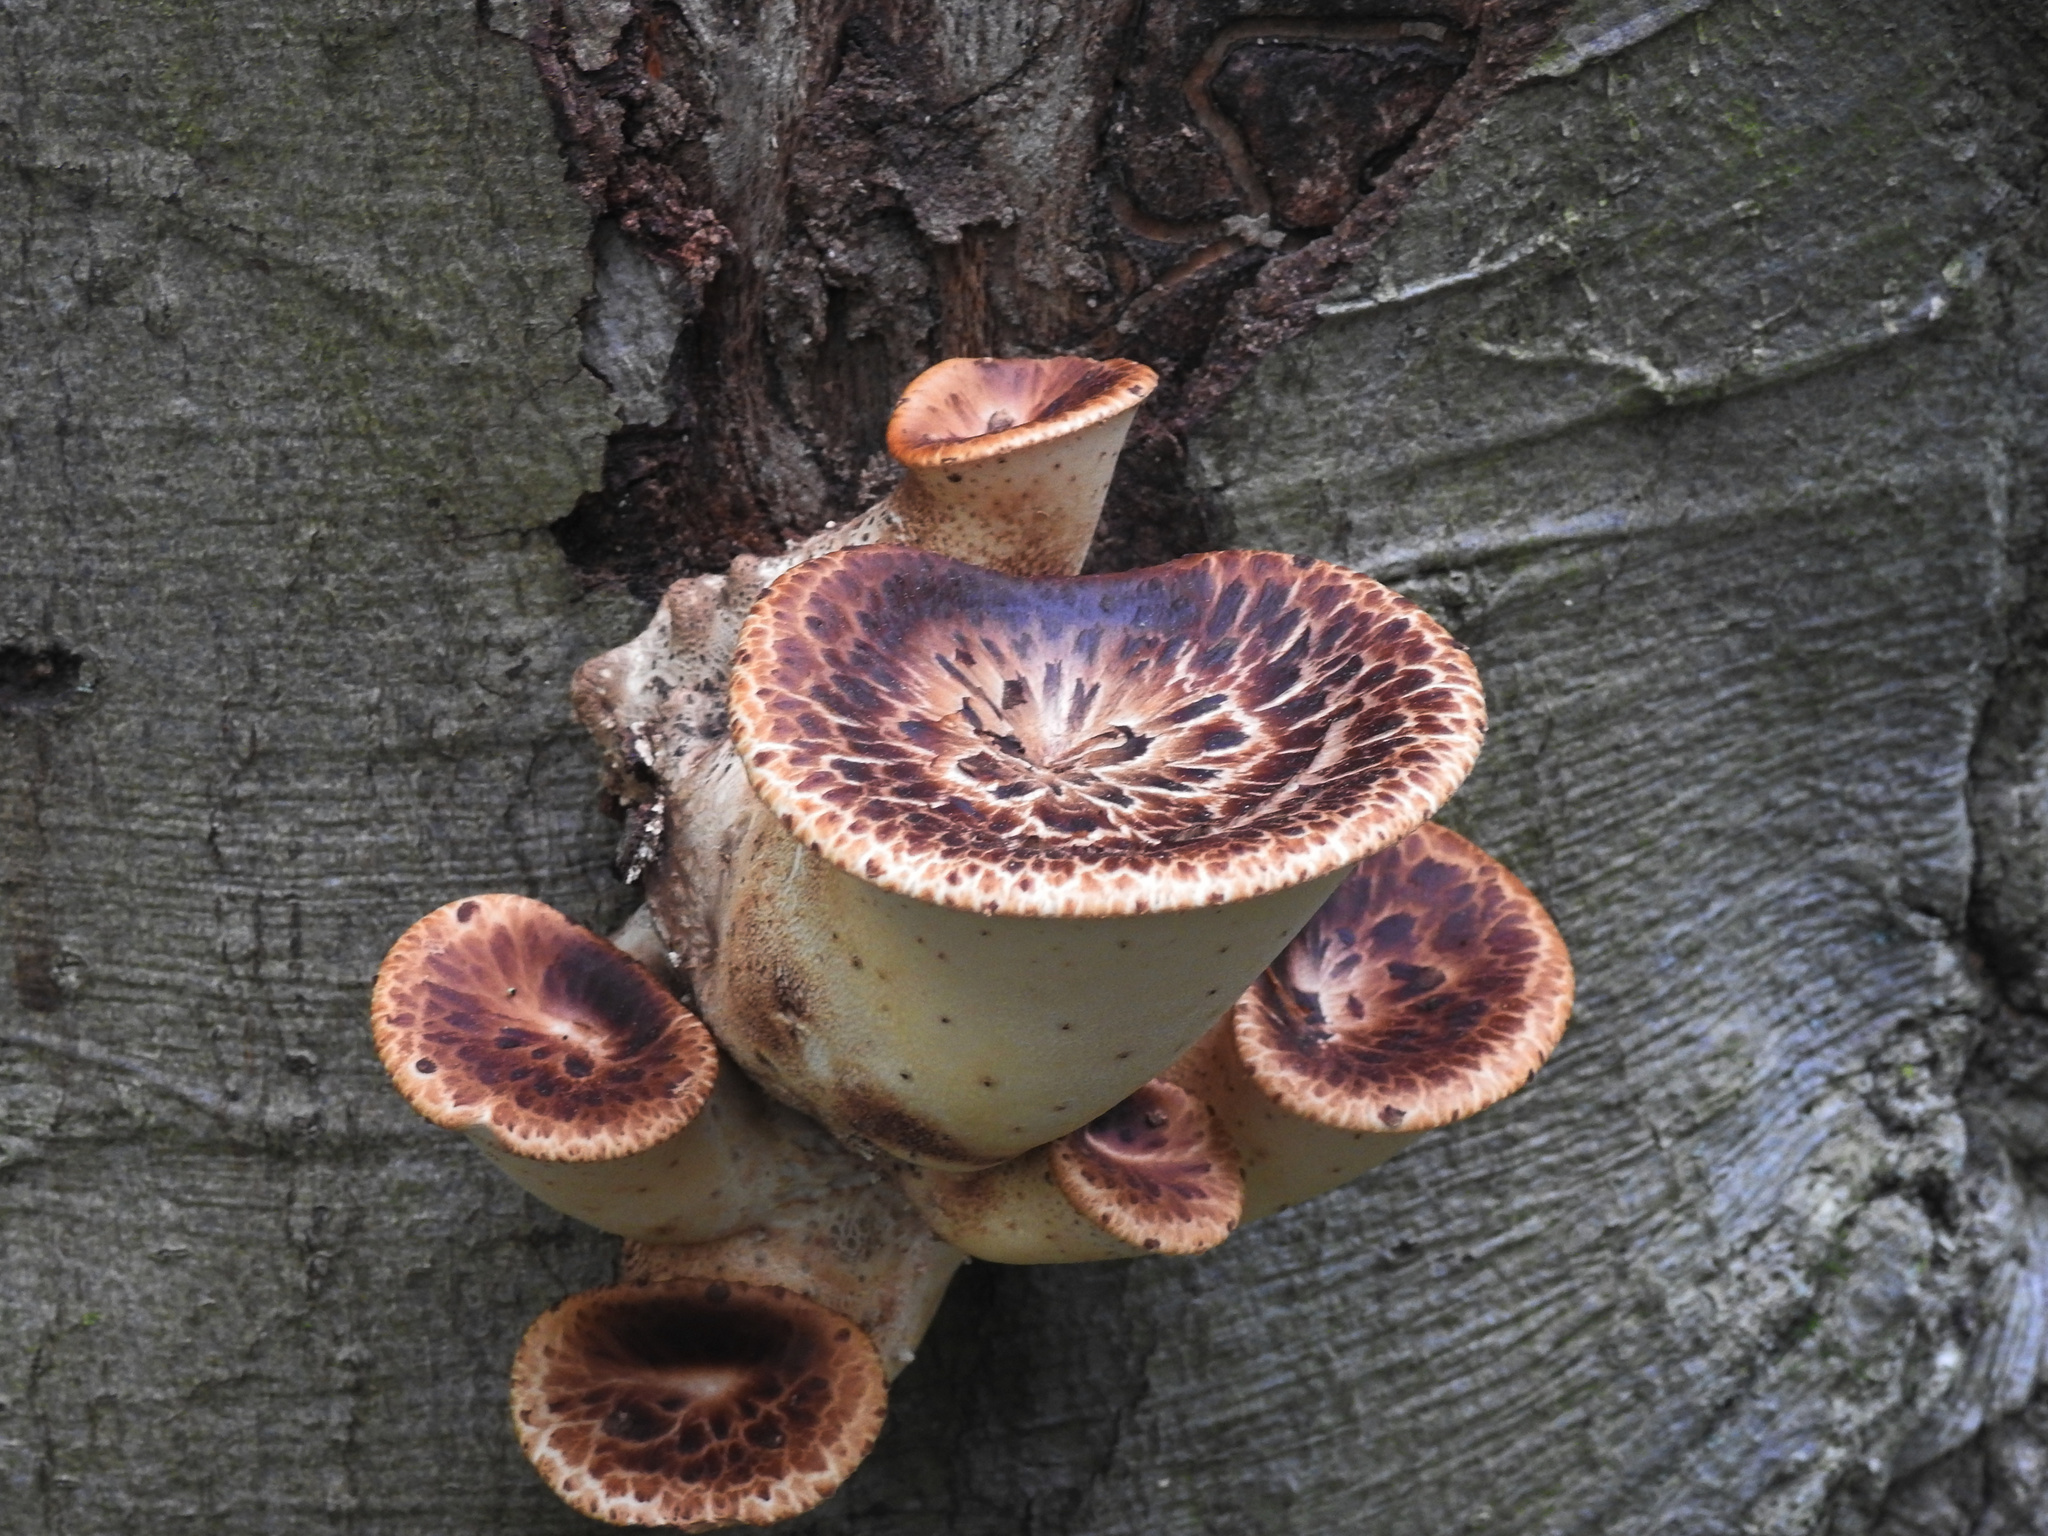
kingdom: Fungi
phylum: Basidiomycota
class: Agaricomycetes
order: Polyporales
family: Polyporaceae
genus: Cerioporus
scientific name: Cerioporus squamosus
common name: Dryad's saddle
